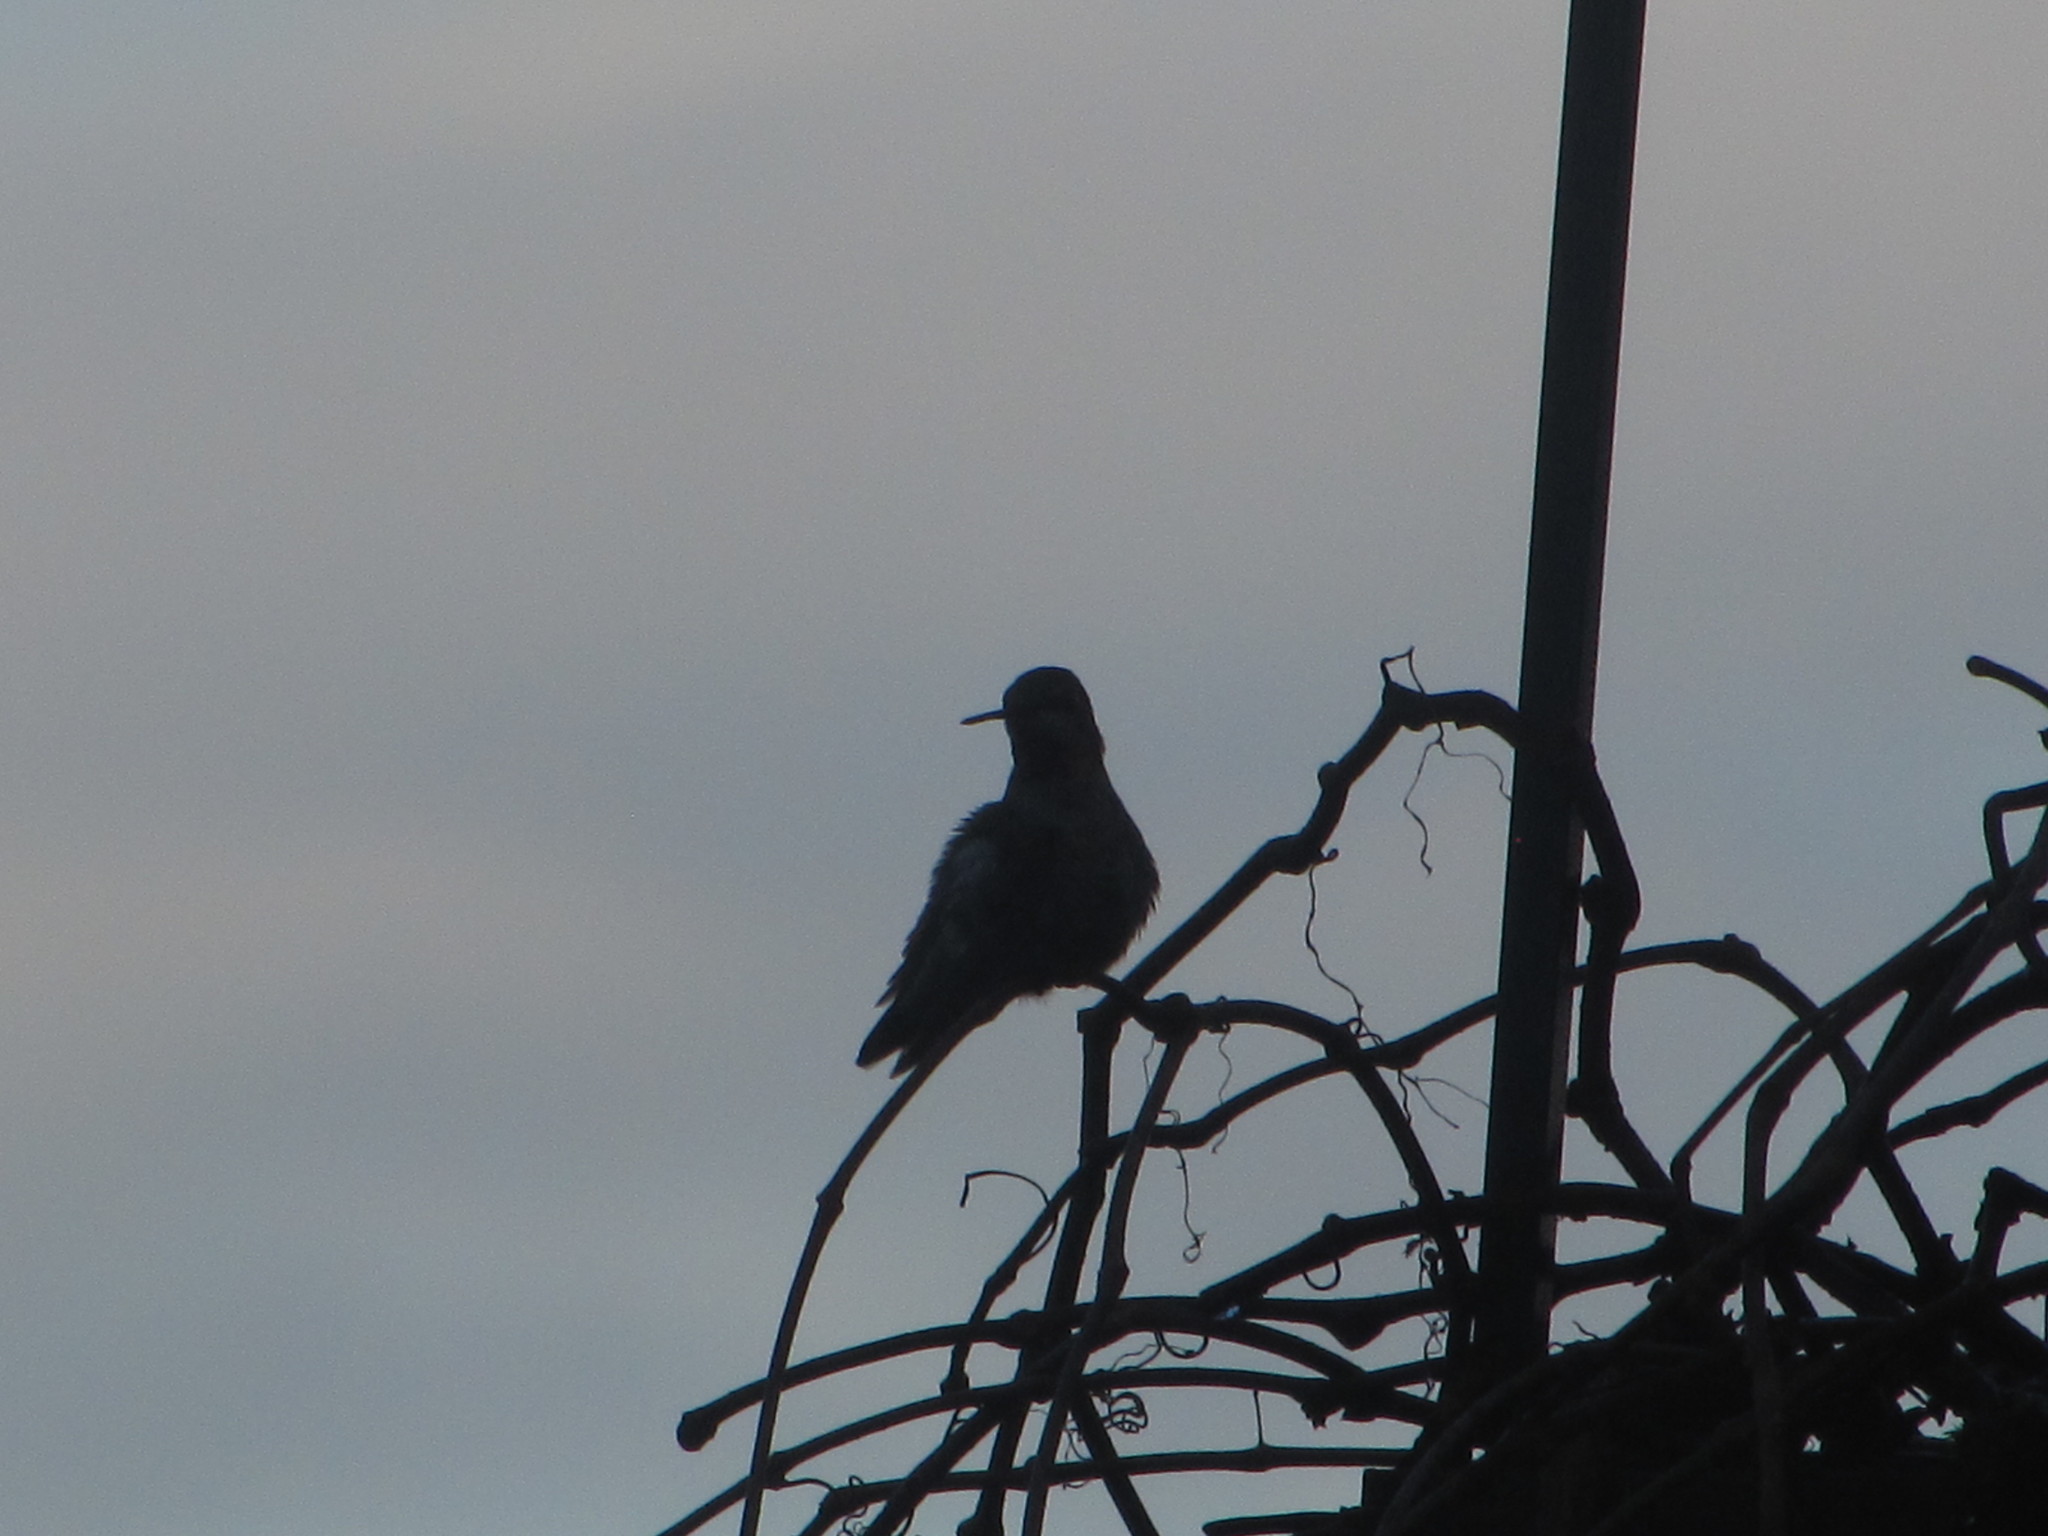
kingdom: Animalia
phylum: Chordata
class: Aves
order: Apodiformes
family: Trochilidae
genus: Calypte
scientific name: Calypte anna
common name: Anna's hummingbird
